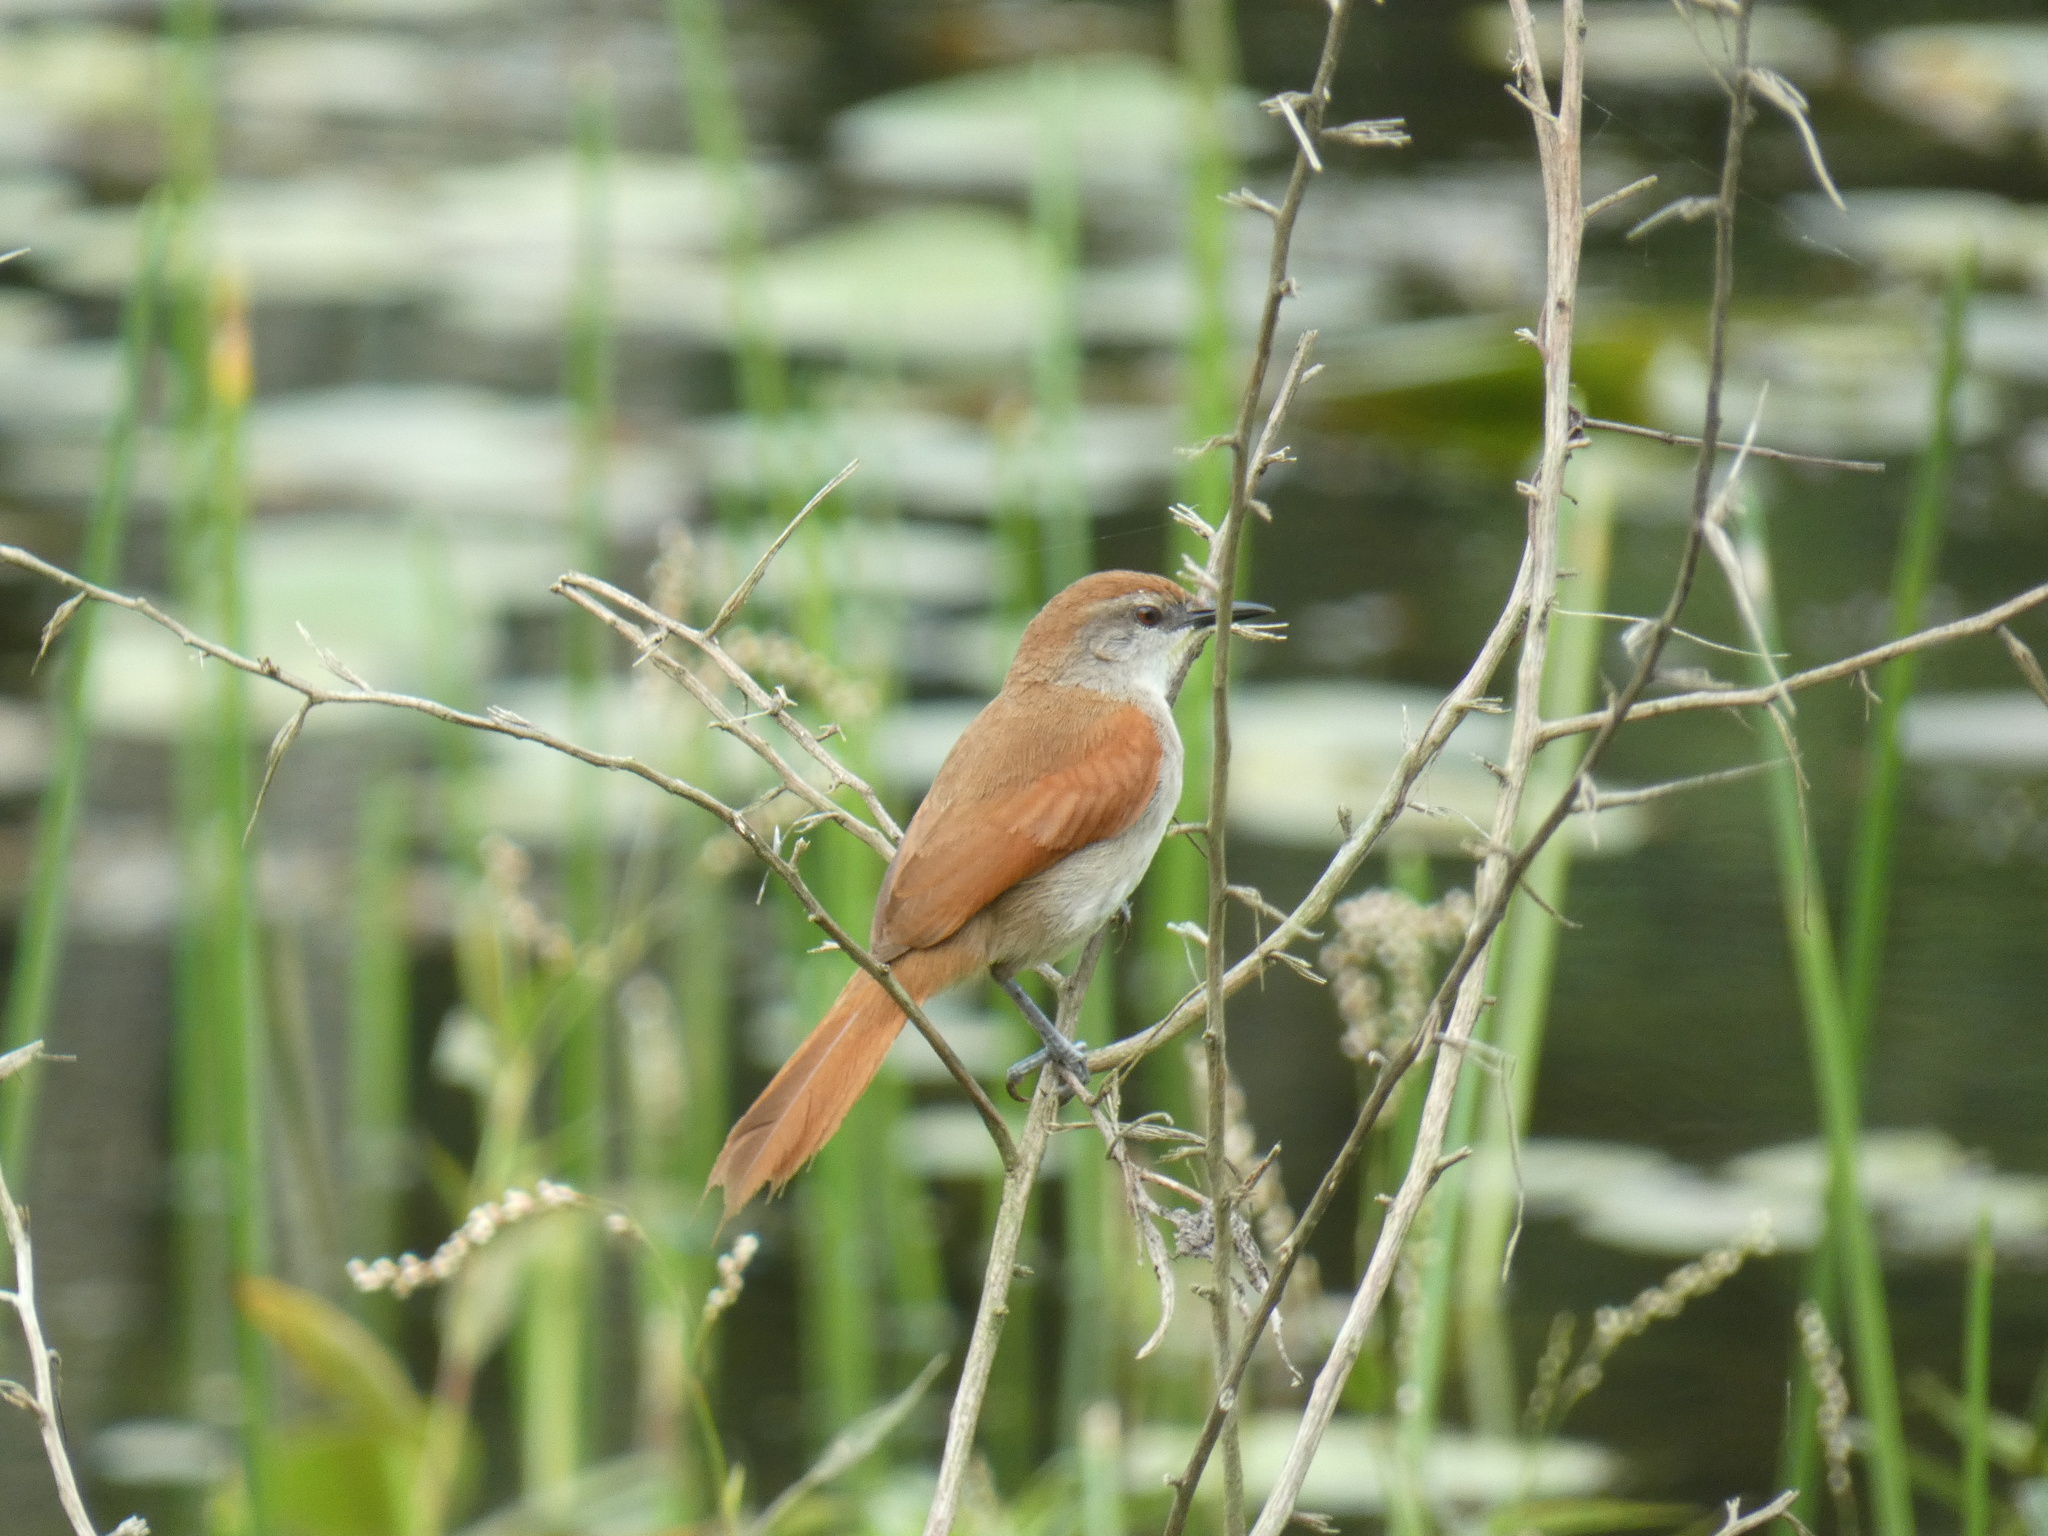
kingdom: Animalia
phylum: Chordata
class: Aves
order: Passeriformes
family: Furnariidae
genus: Certhiaxis
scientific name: Certhiaxis cinnamomeus
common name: Yellow-chinned spinetail
